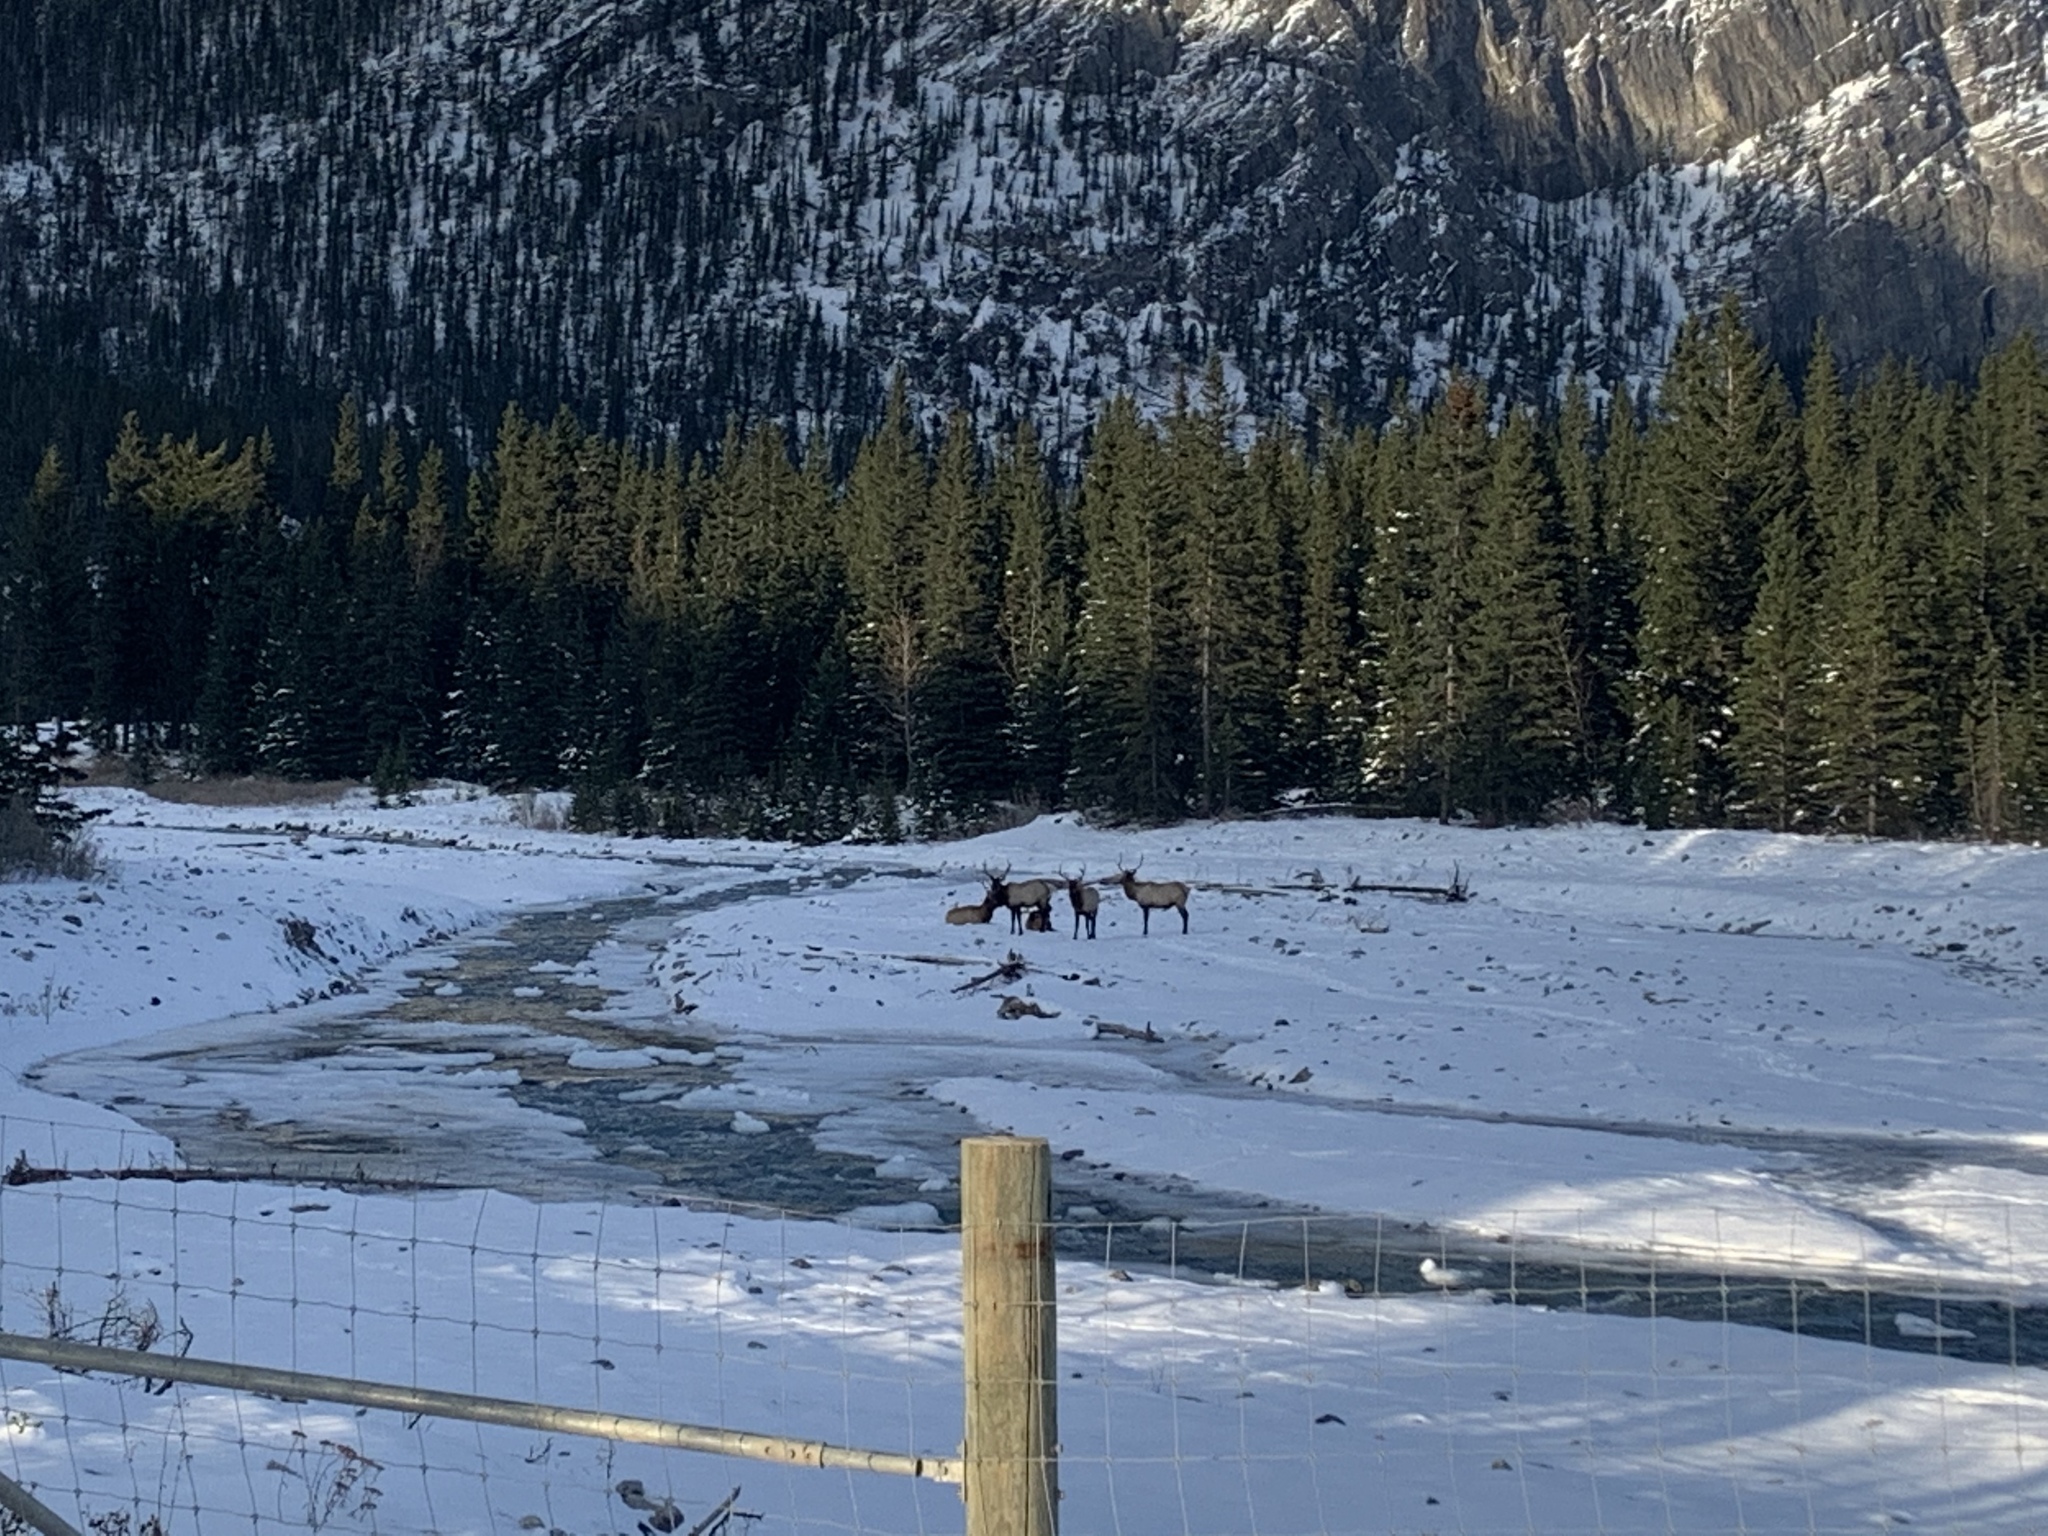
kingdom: Animalia
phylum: Chordata
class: Mammalia
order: Artiodactyla
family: Cervidae
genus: Cervus
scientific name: Cervus elaphus
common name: Red deer
